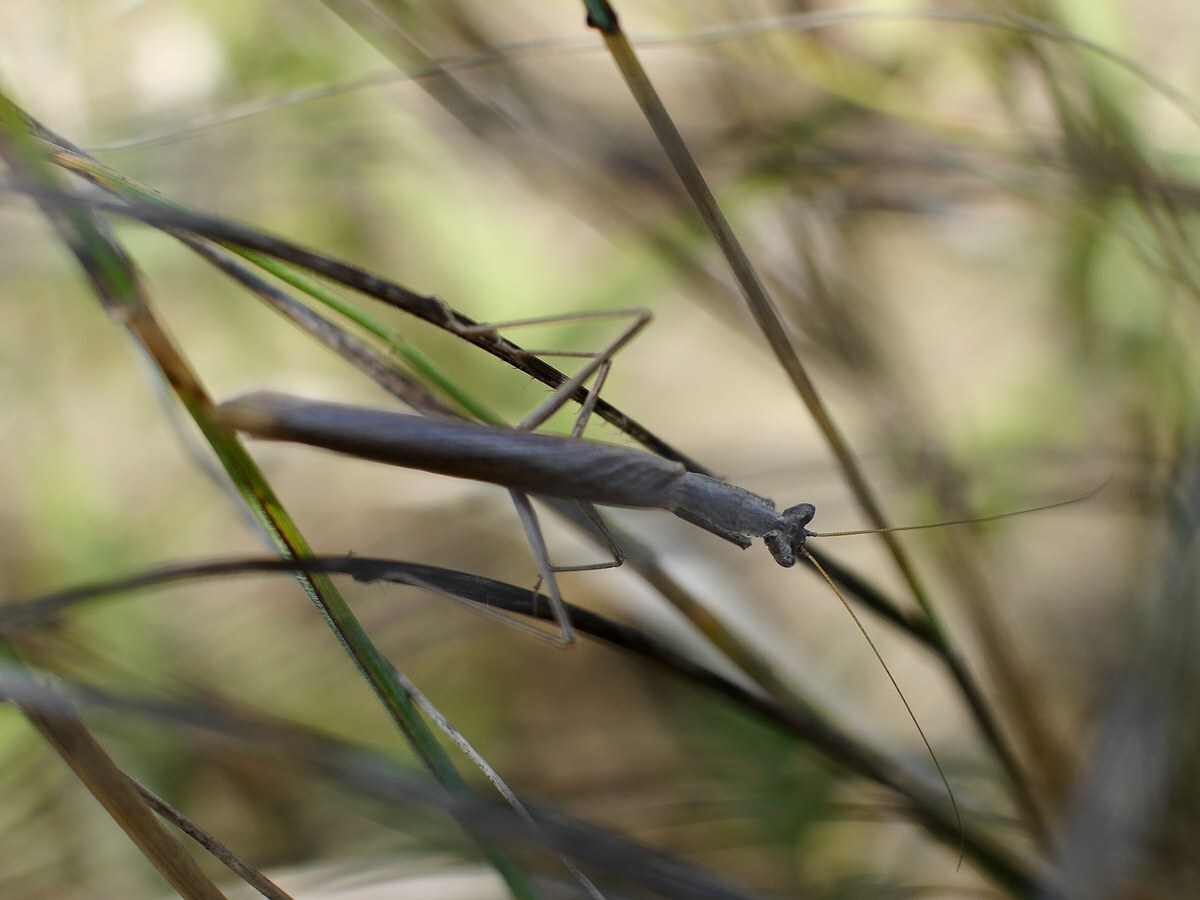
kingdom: Animalia
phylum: Arthropoda
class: Insecta
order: Mantodea
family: Amelidae
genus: Ameles
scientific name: Ameles heldreichi
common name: Heldreich's dwarf mantis
